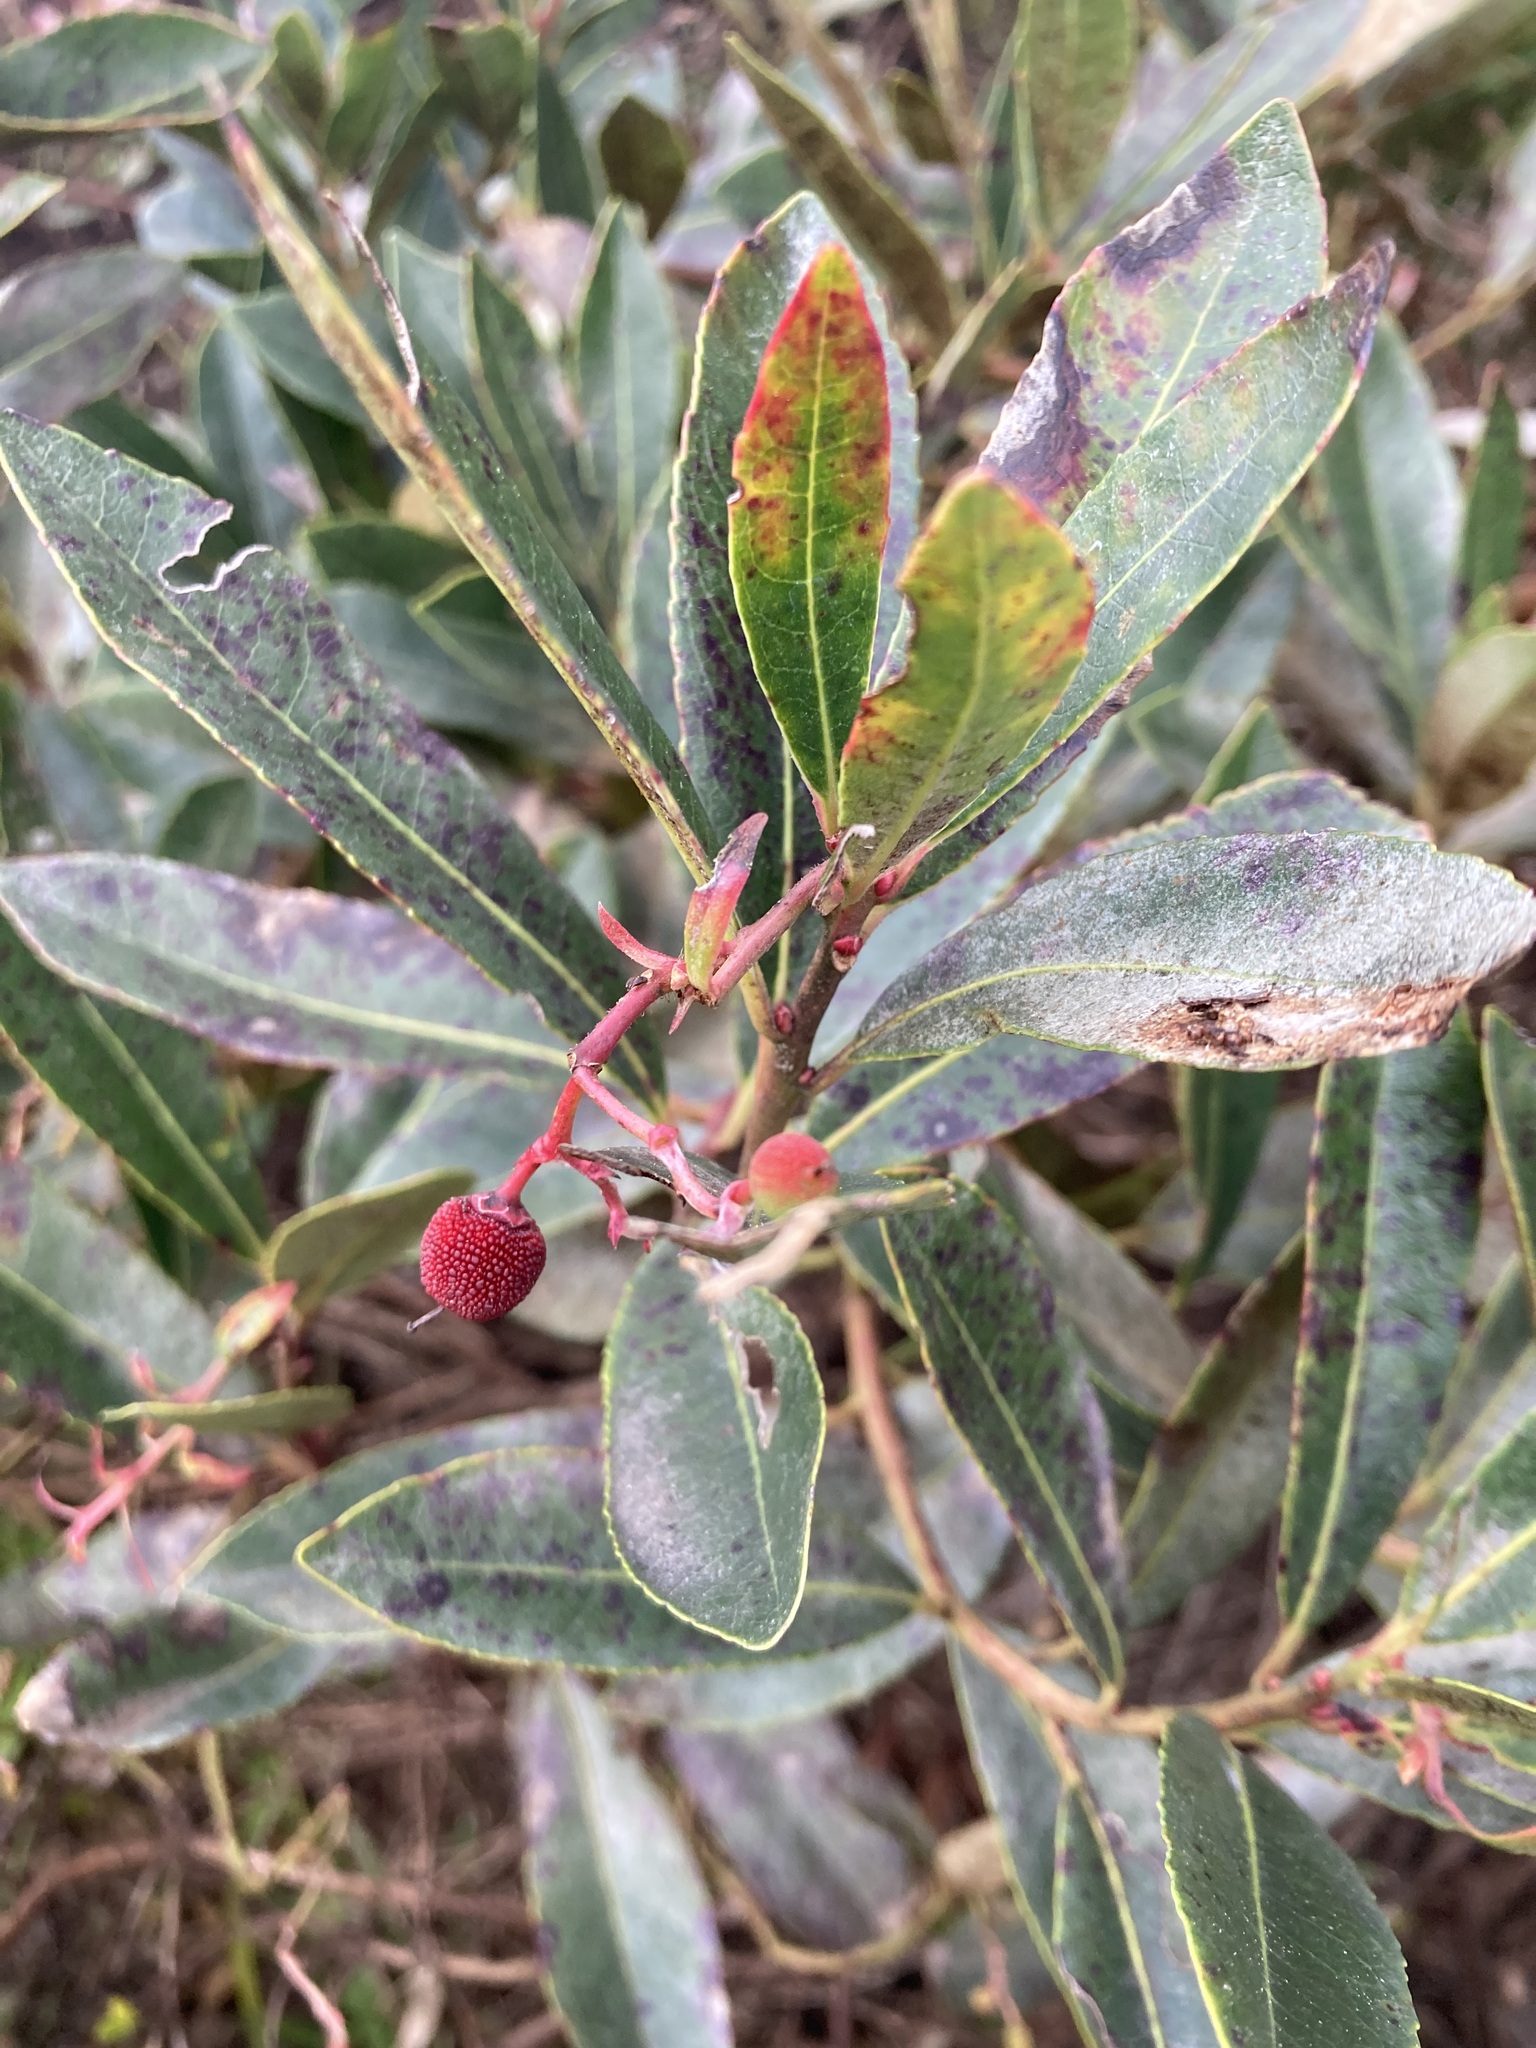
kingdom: Plantae
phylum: Tracheophyta
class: Magnoliopsida
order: Ericales
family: Ericaceae
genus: Arbutus
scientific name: Arbutus unedo
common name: Strawberry-tree
